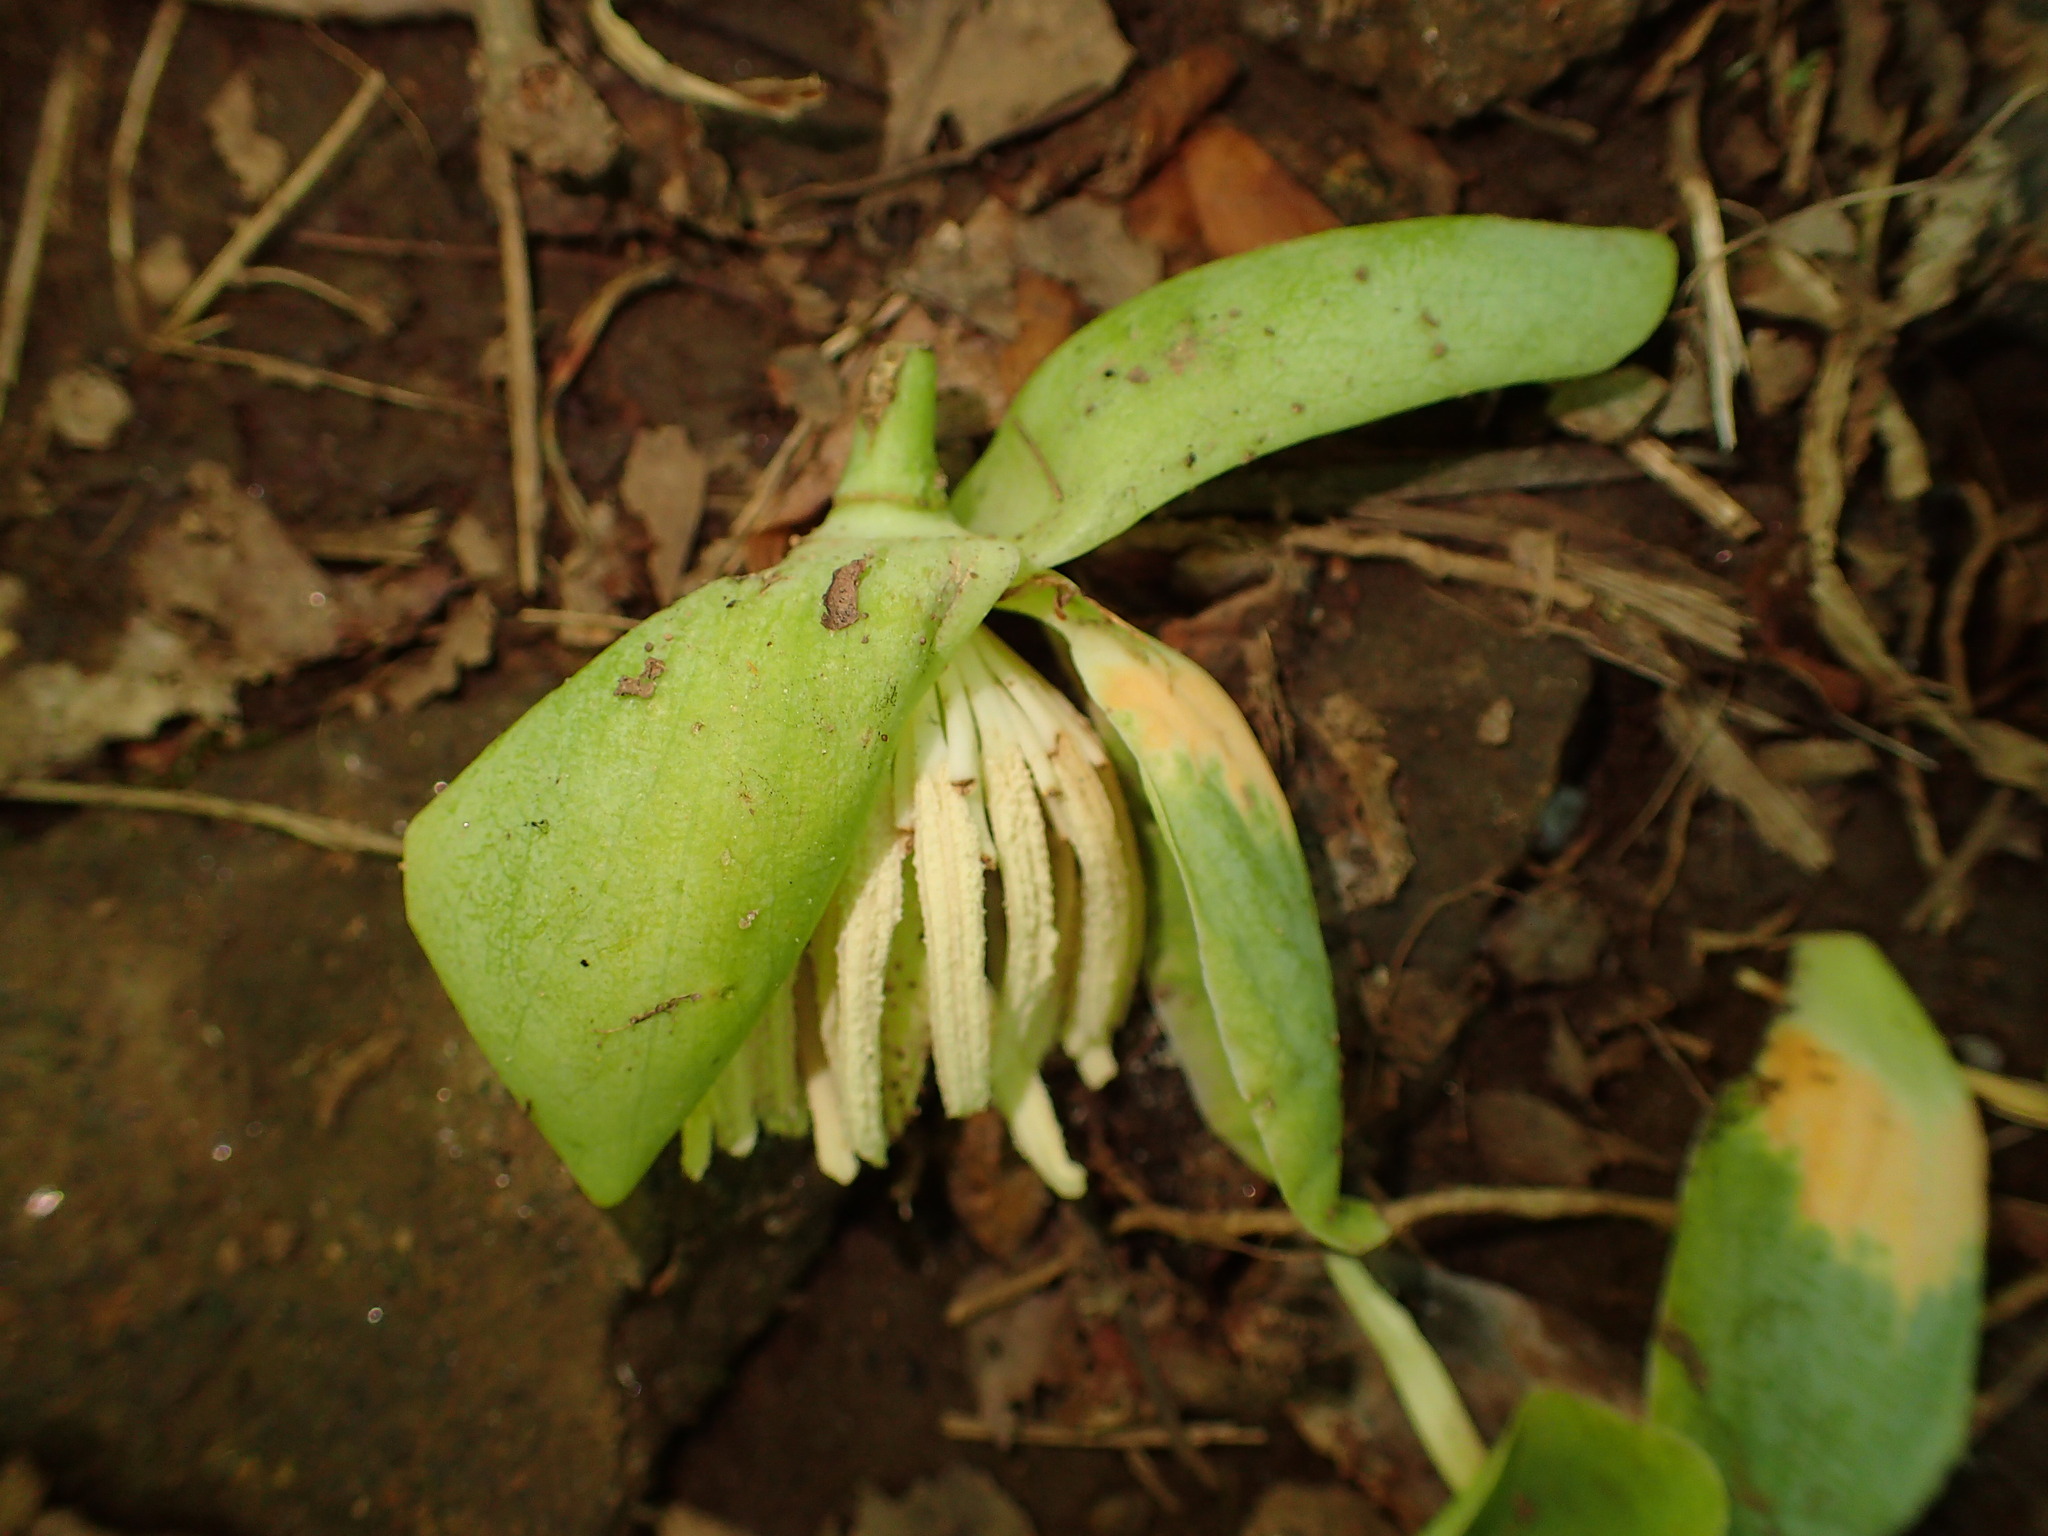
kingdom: Plantae
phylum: Tracheophyta
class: Magnoliopsida
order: Magnoliales
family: Magnoliaceae
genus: Liriodendron
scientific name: Liriodendron tulipifera
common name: Tulip tree
